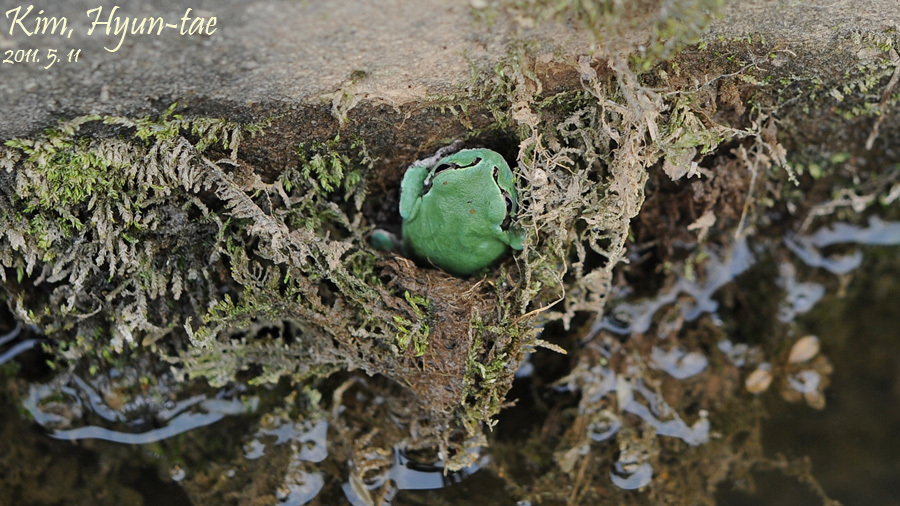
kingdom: Animalia
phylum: Chordata
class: Amphibia
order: Anura
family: Hylidae
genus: Dryophytes
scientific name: Dryophytes japonicus
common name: Japanese treefrog
